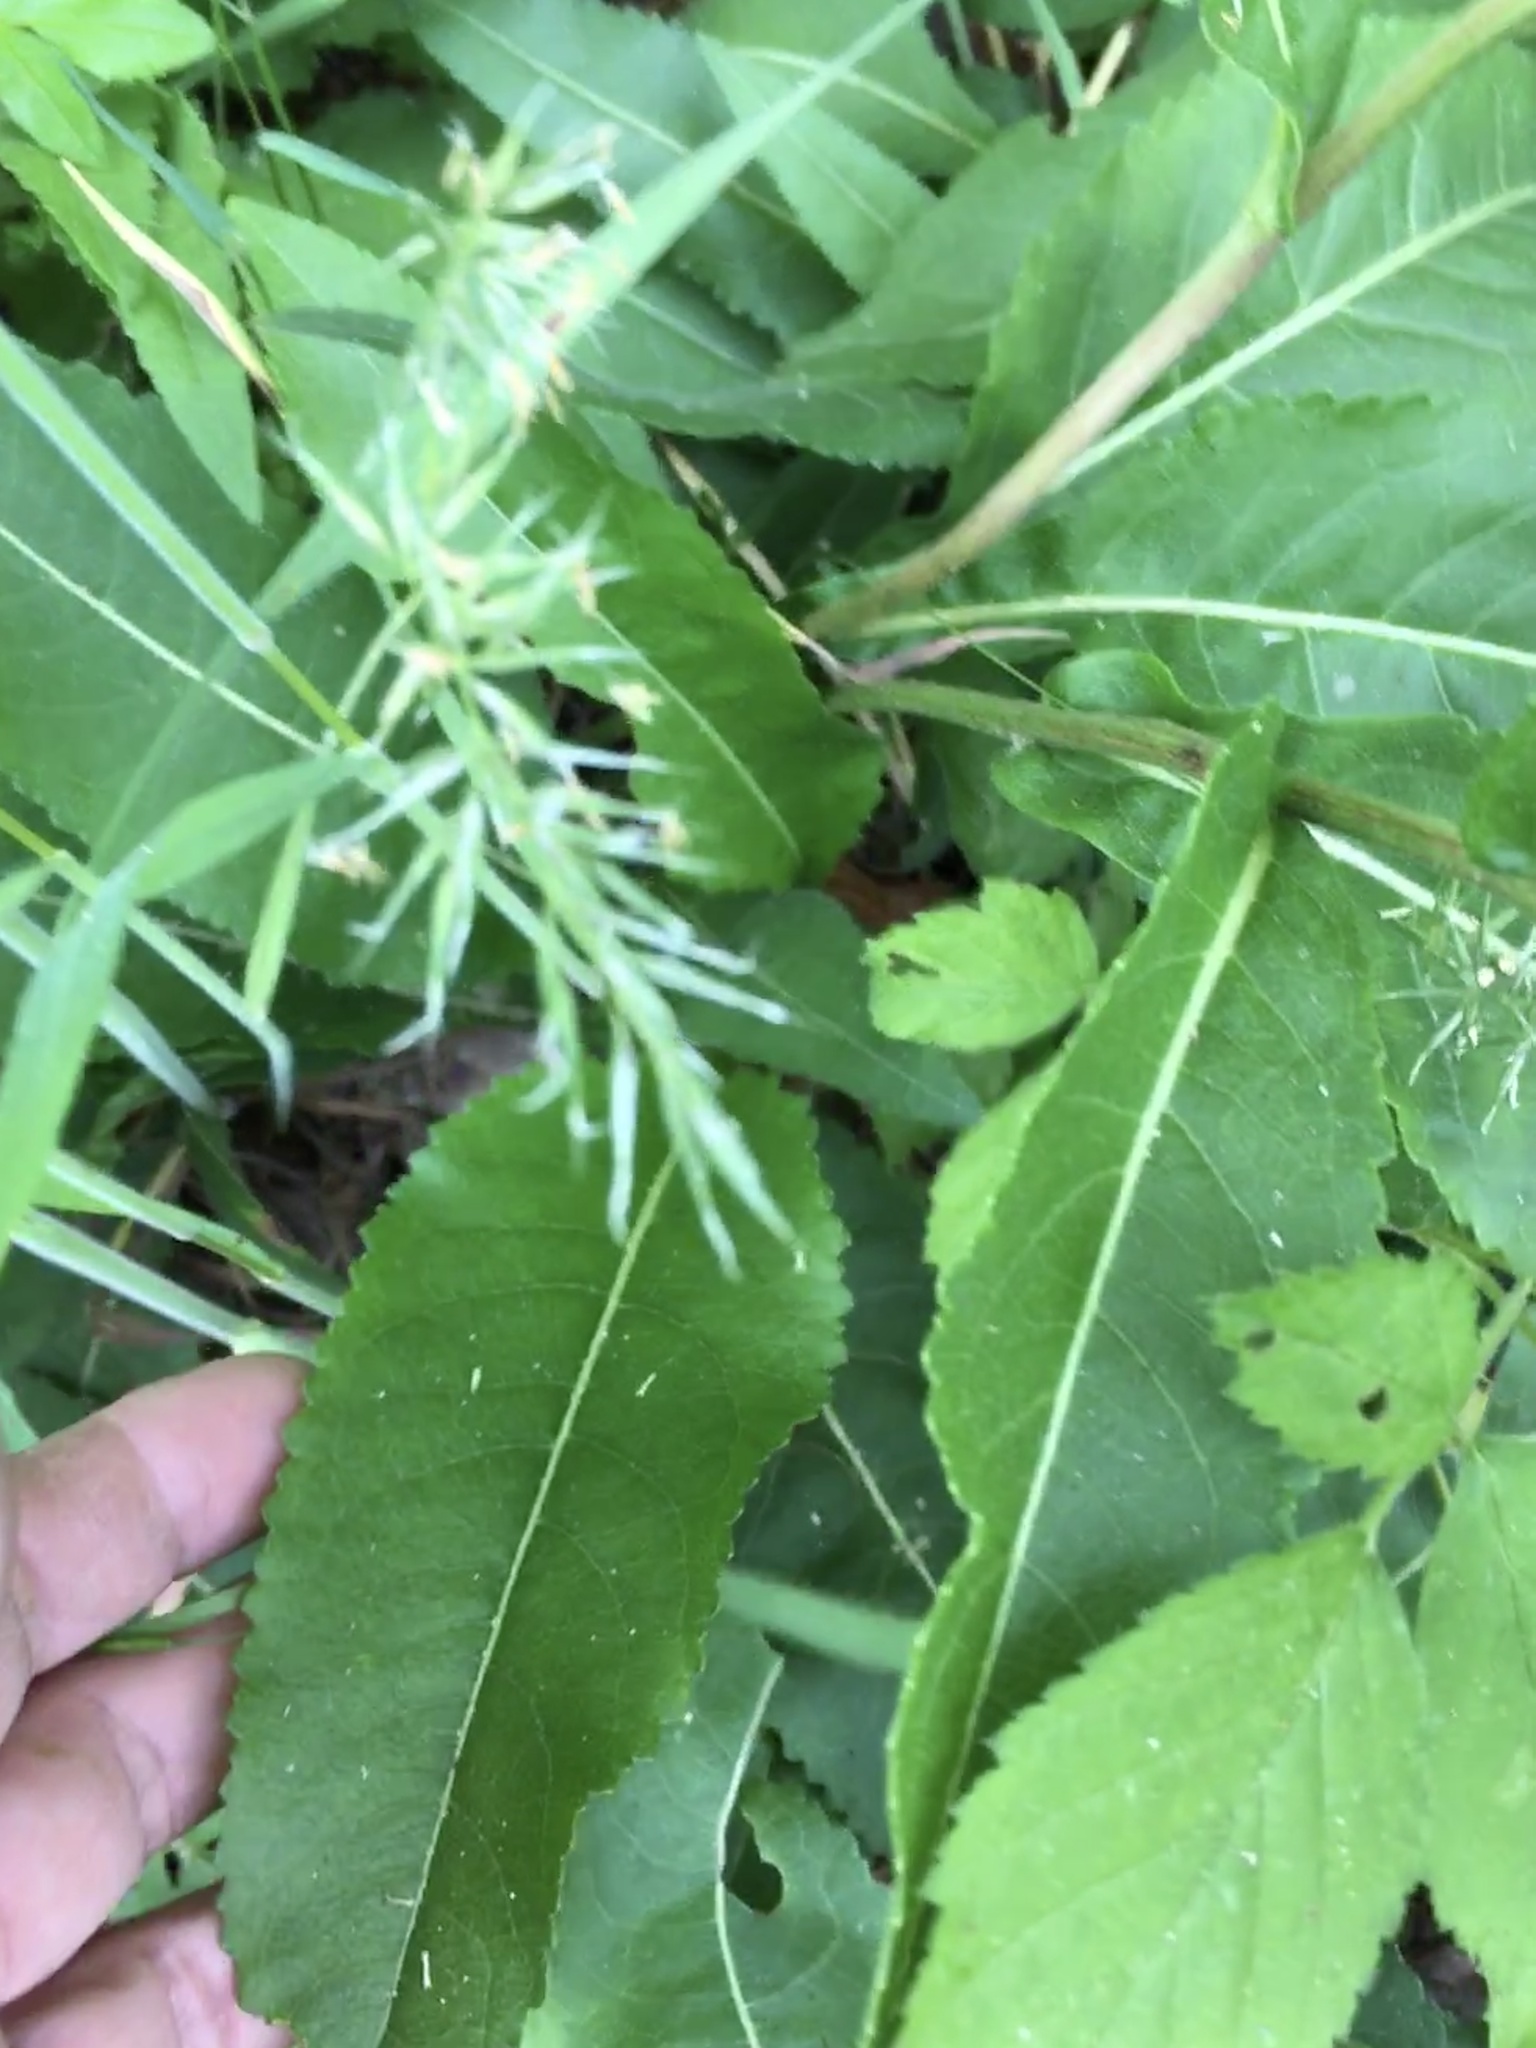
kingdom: Plantae
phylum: Tracheophyta
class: Magnoliopsida
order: Asterales
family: Asteraceae
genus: Parthenium
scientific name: Parthenium integrifolium
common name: American feverfew
